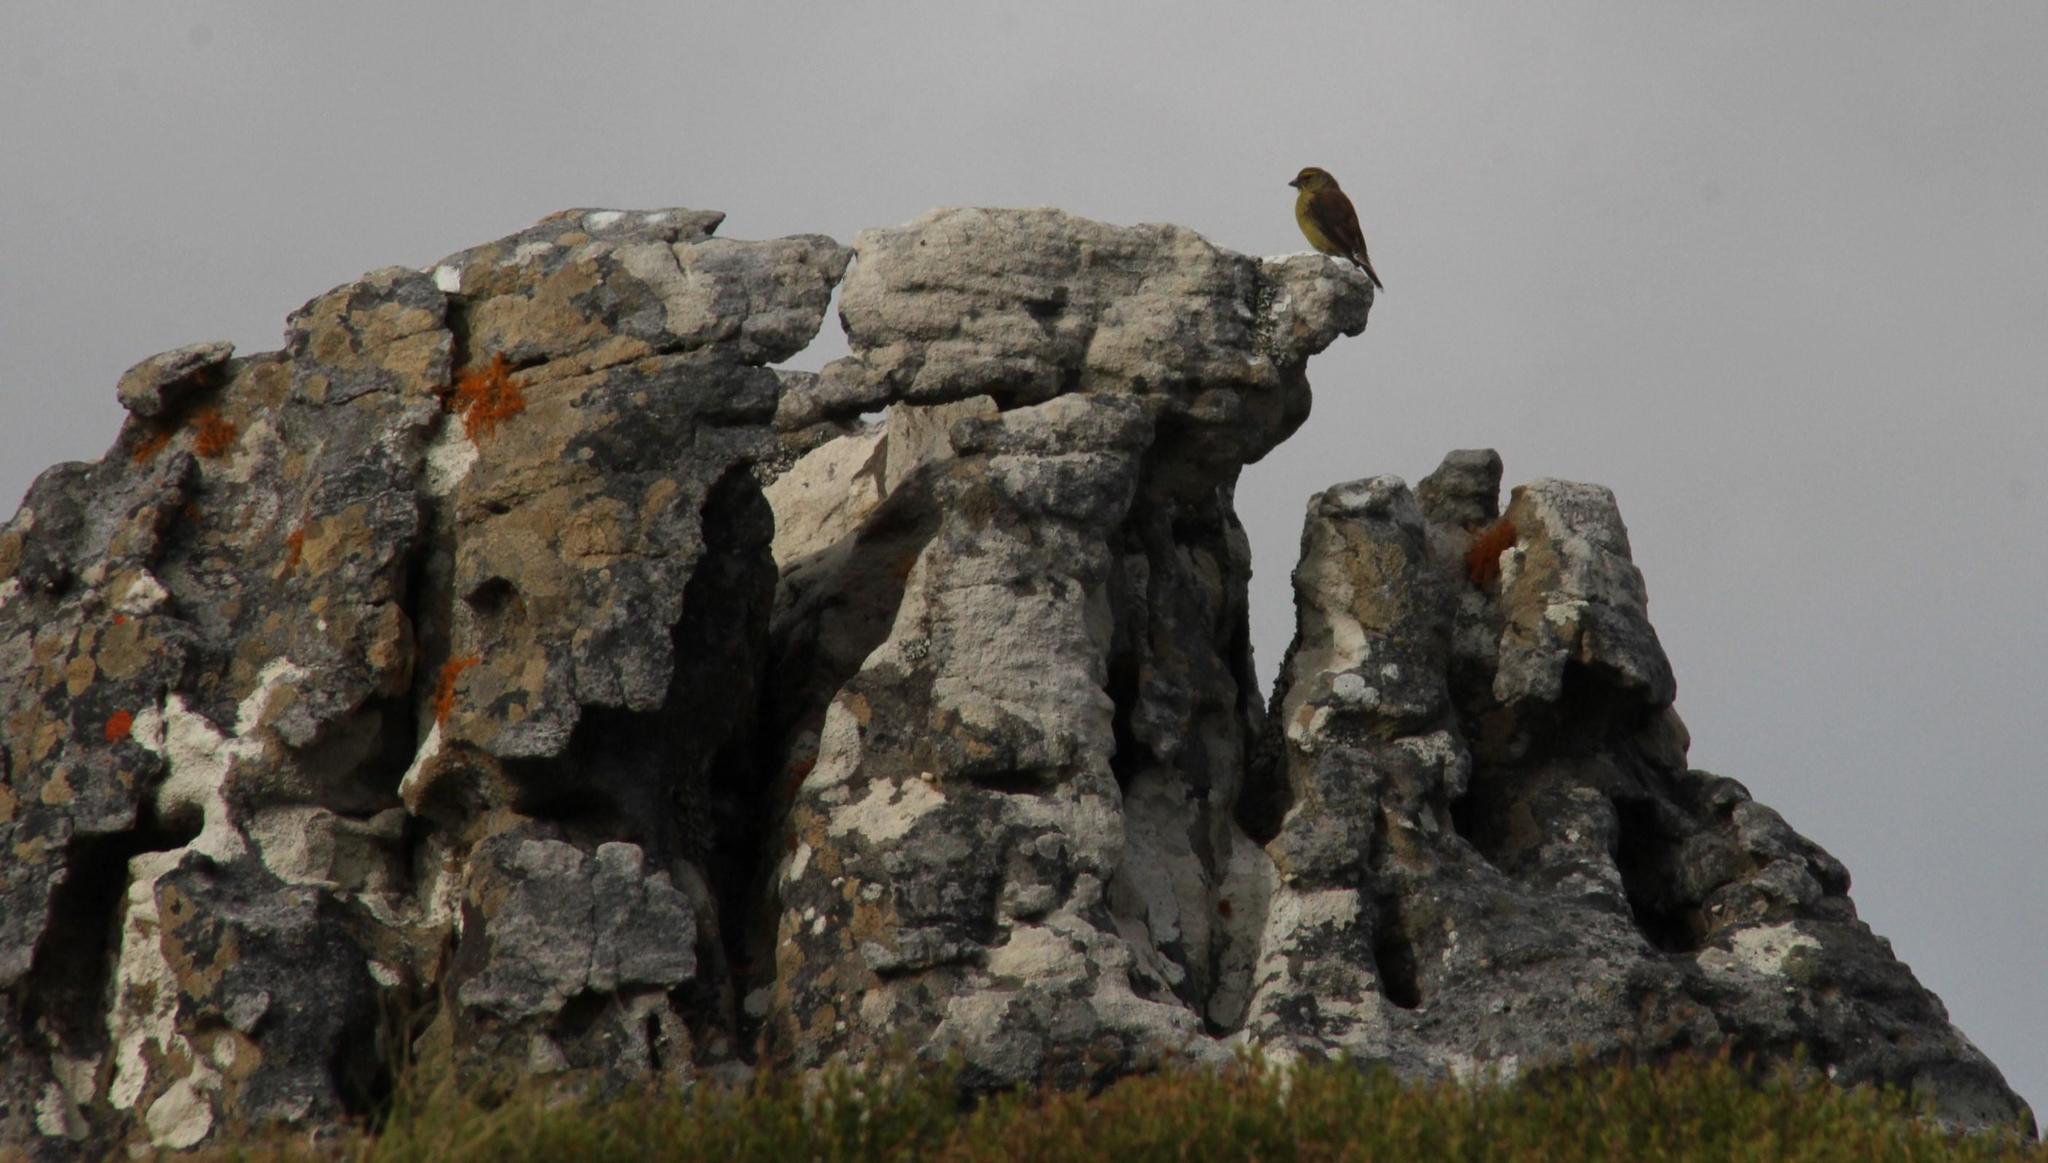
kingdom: Animalia
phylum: Chordata
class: Aves
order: Passeriformes
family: Fringillidae
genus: Crithagra
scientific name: Crithagra totta
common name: Cape siskin
